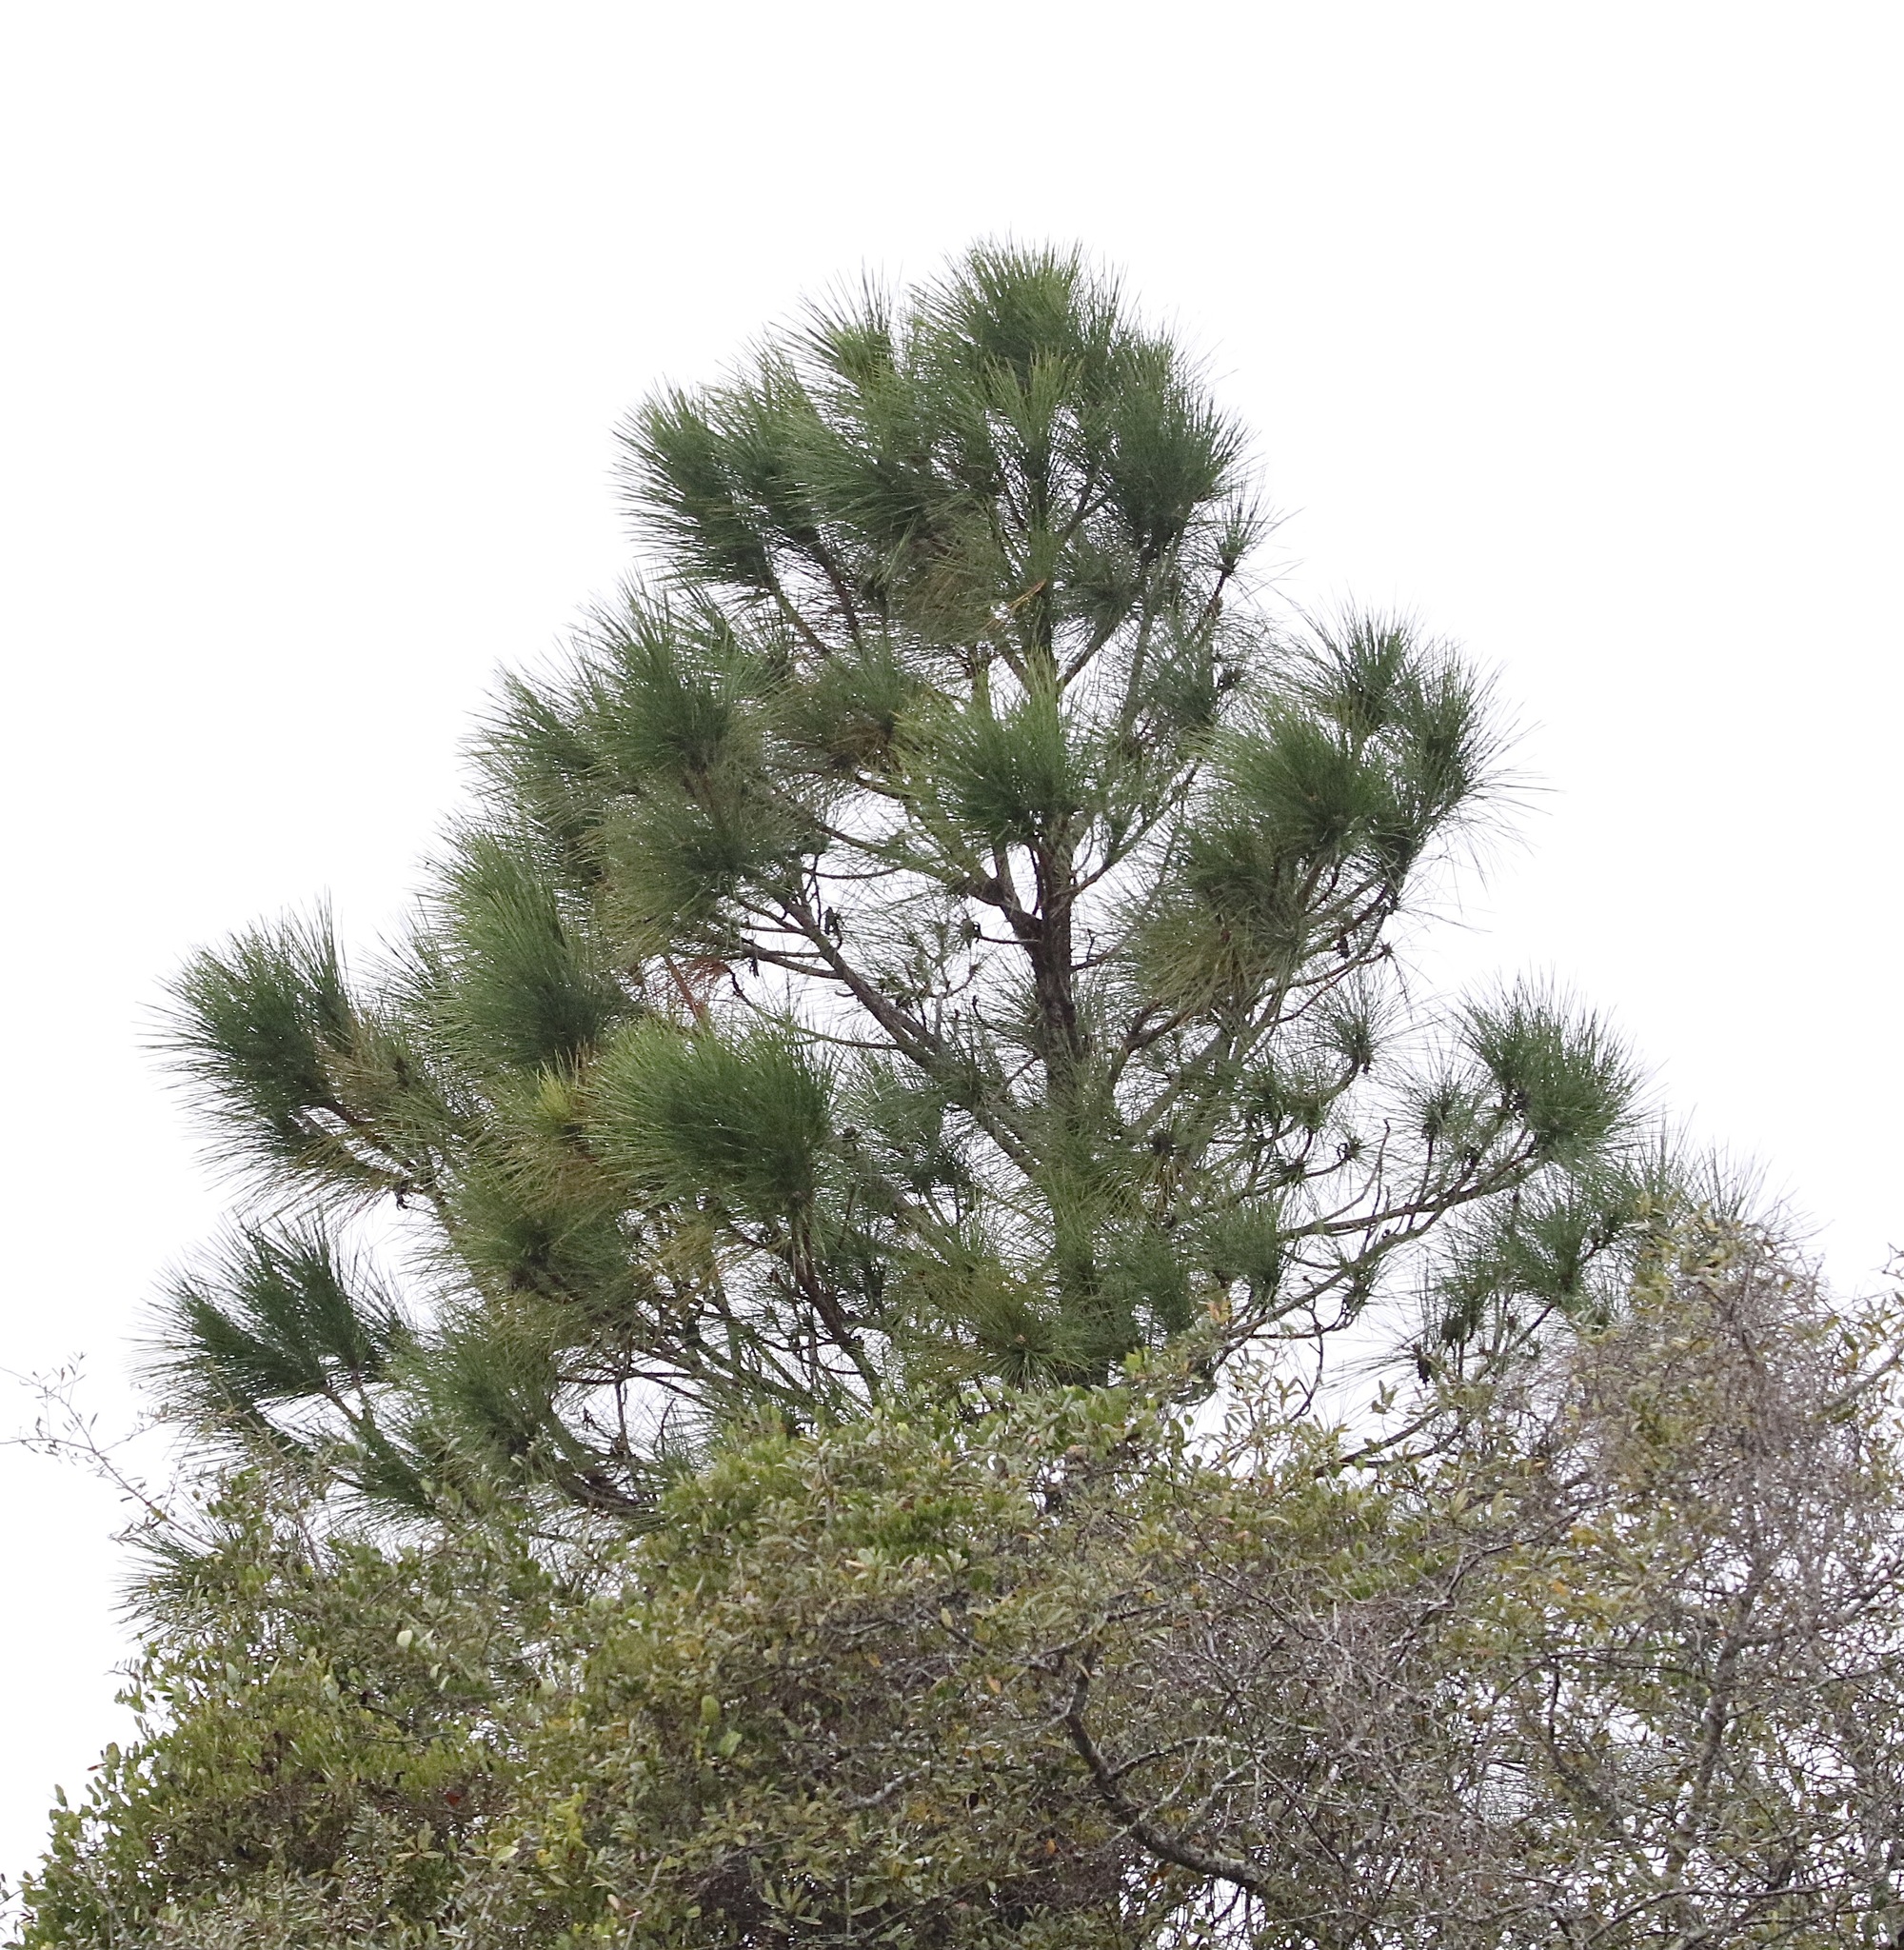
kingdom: Plantae
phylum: Tracheophyta
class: Pinopsida
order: Pinales
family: Pinaceae
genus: Pinus
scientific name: Pinus elliottii
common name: Slash pine
